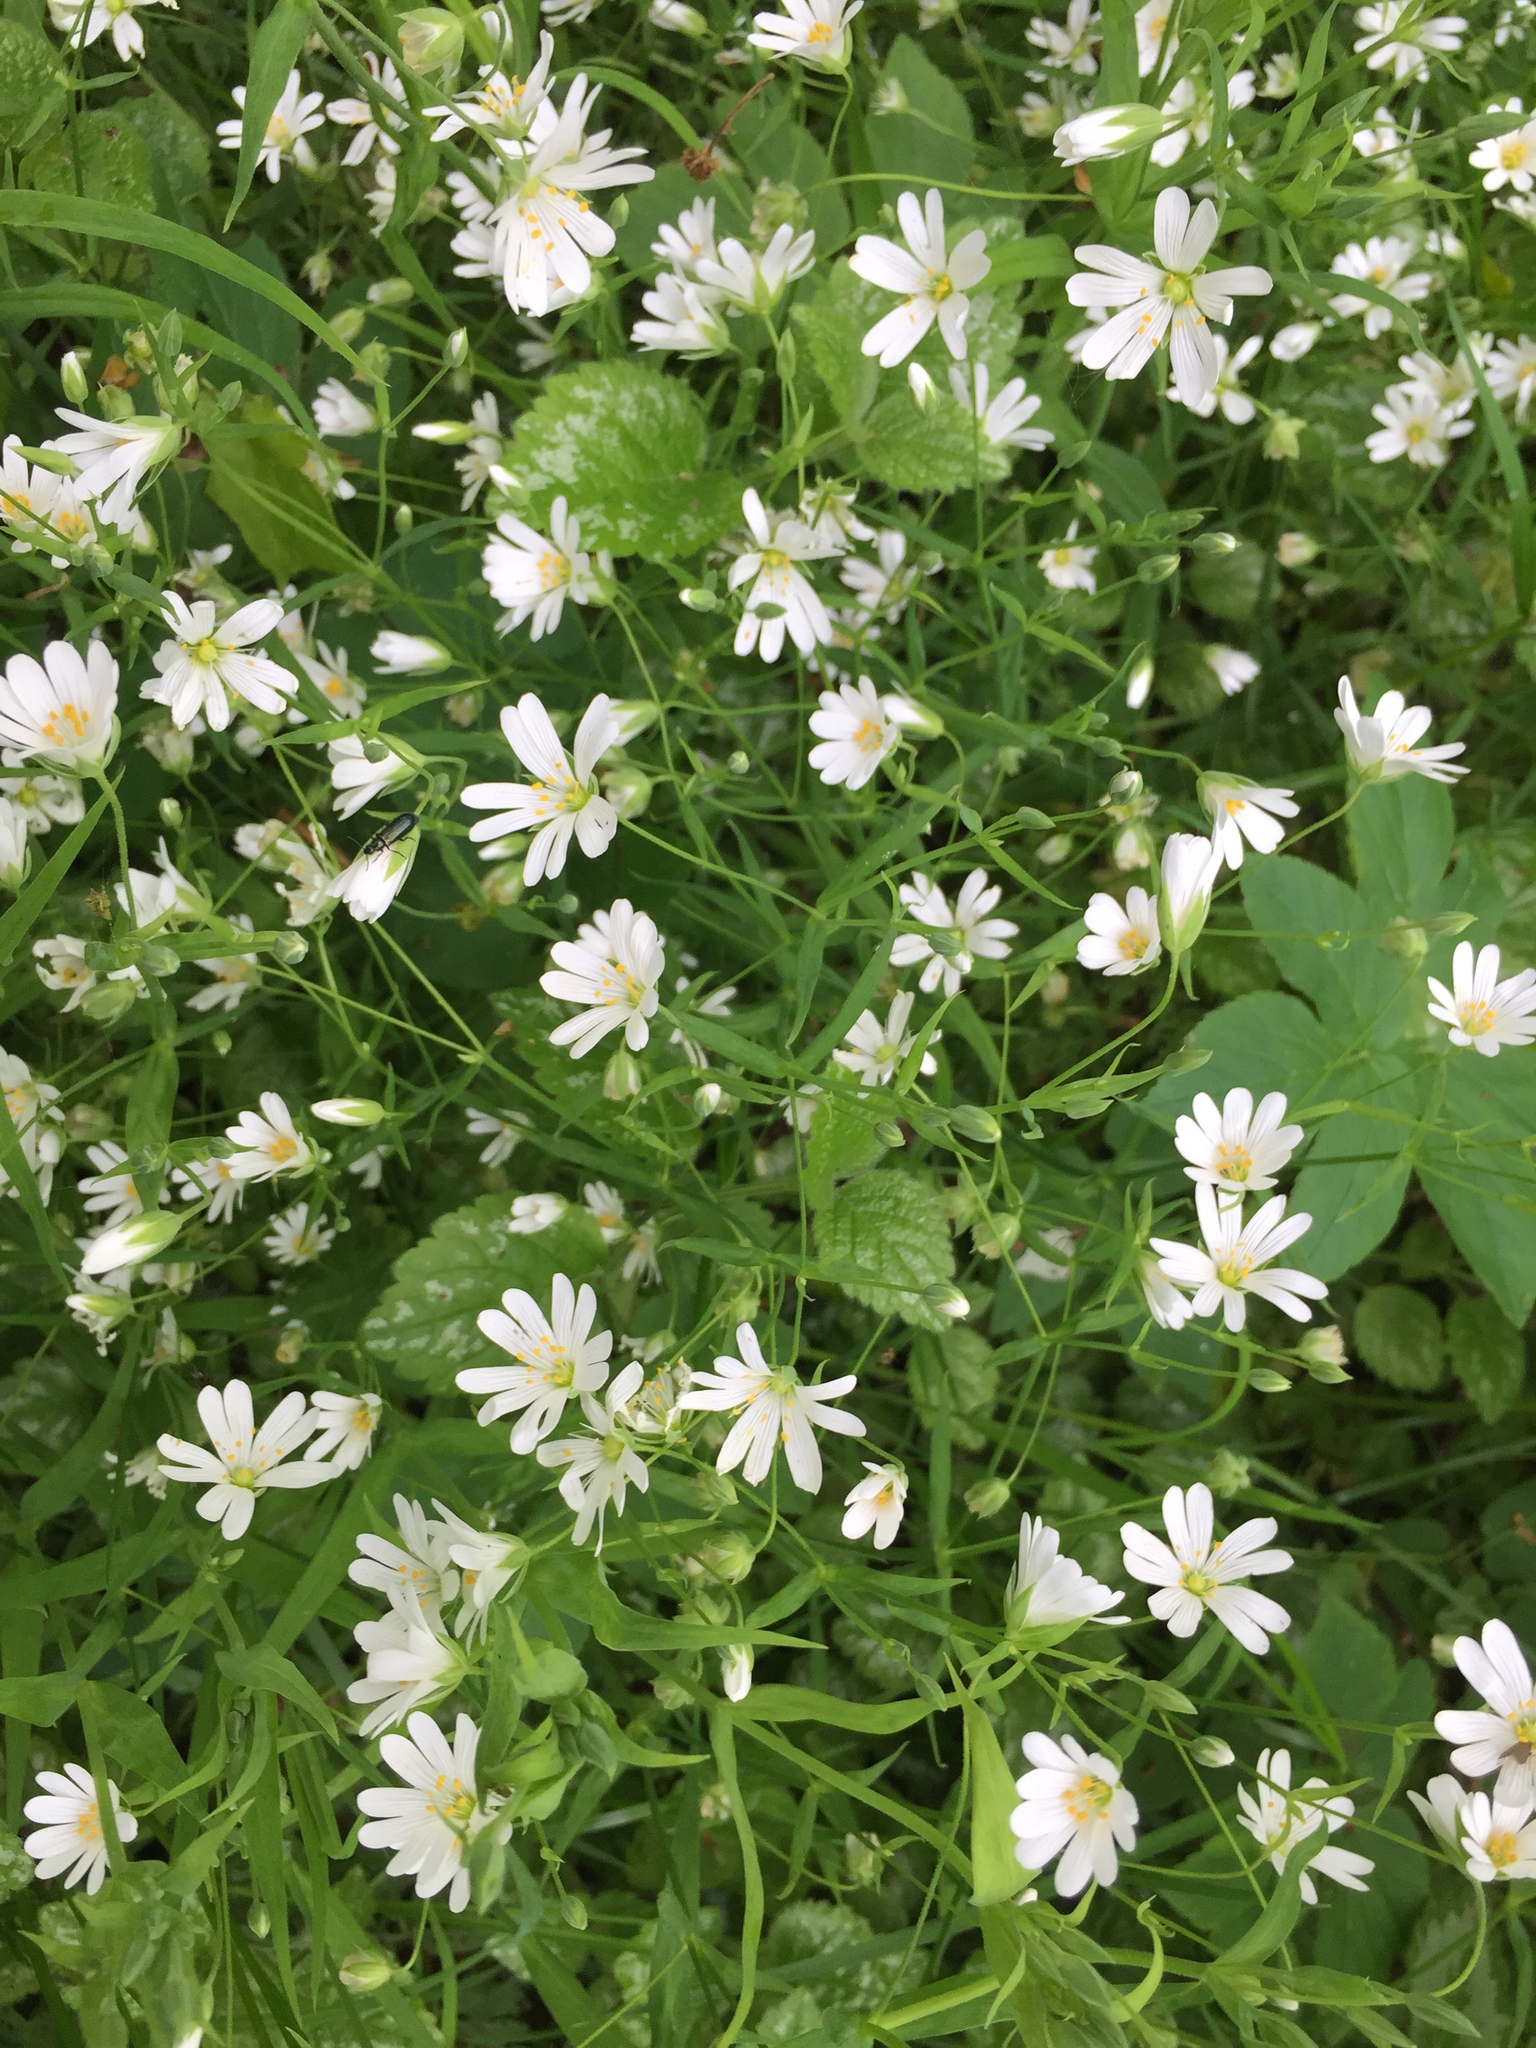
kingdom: Plantae
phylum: Tracheophyta
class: Magnoliopsida
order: Caryophyllales
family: Caryophyllaceae
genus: Rabelera
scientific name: Rabelera holostea
